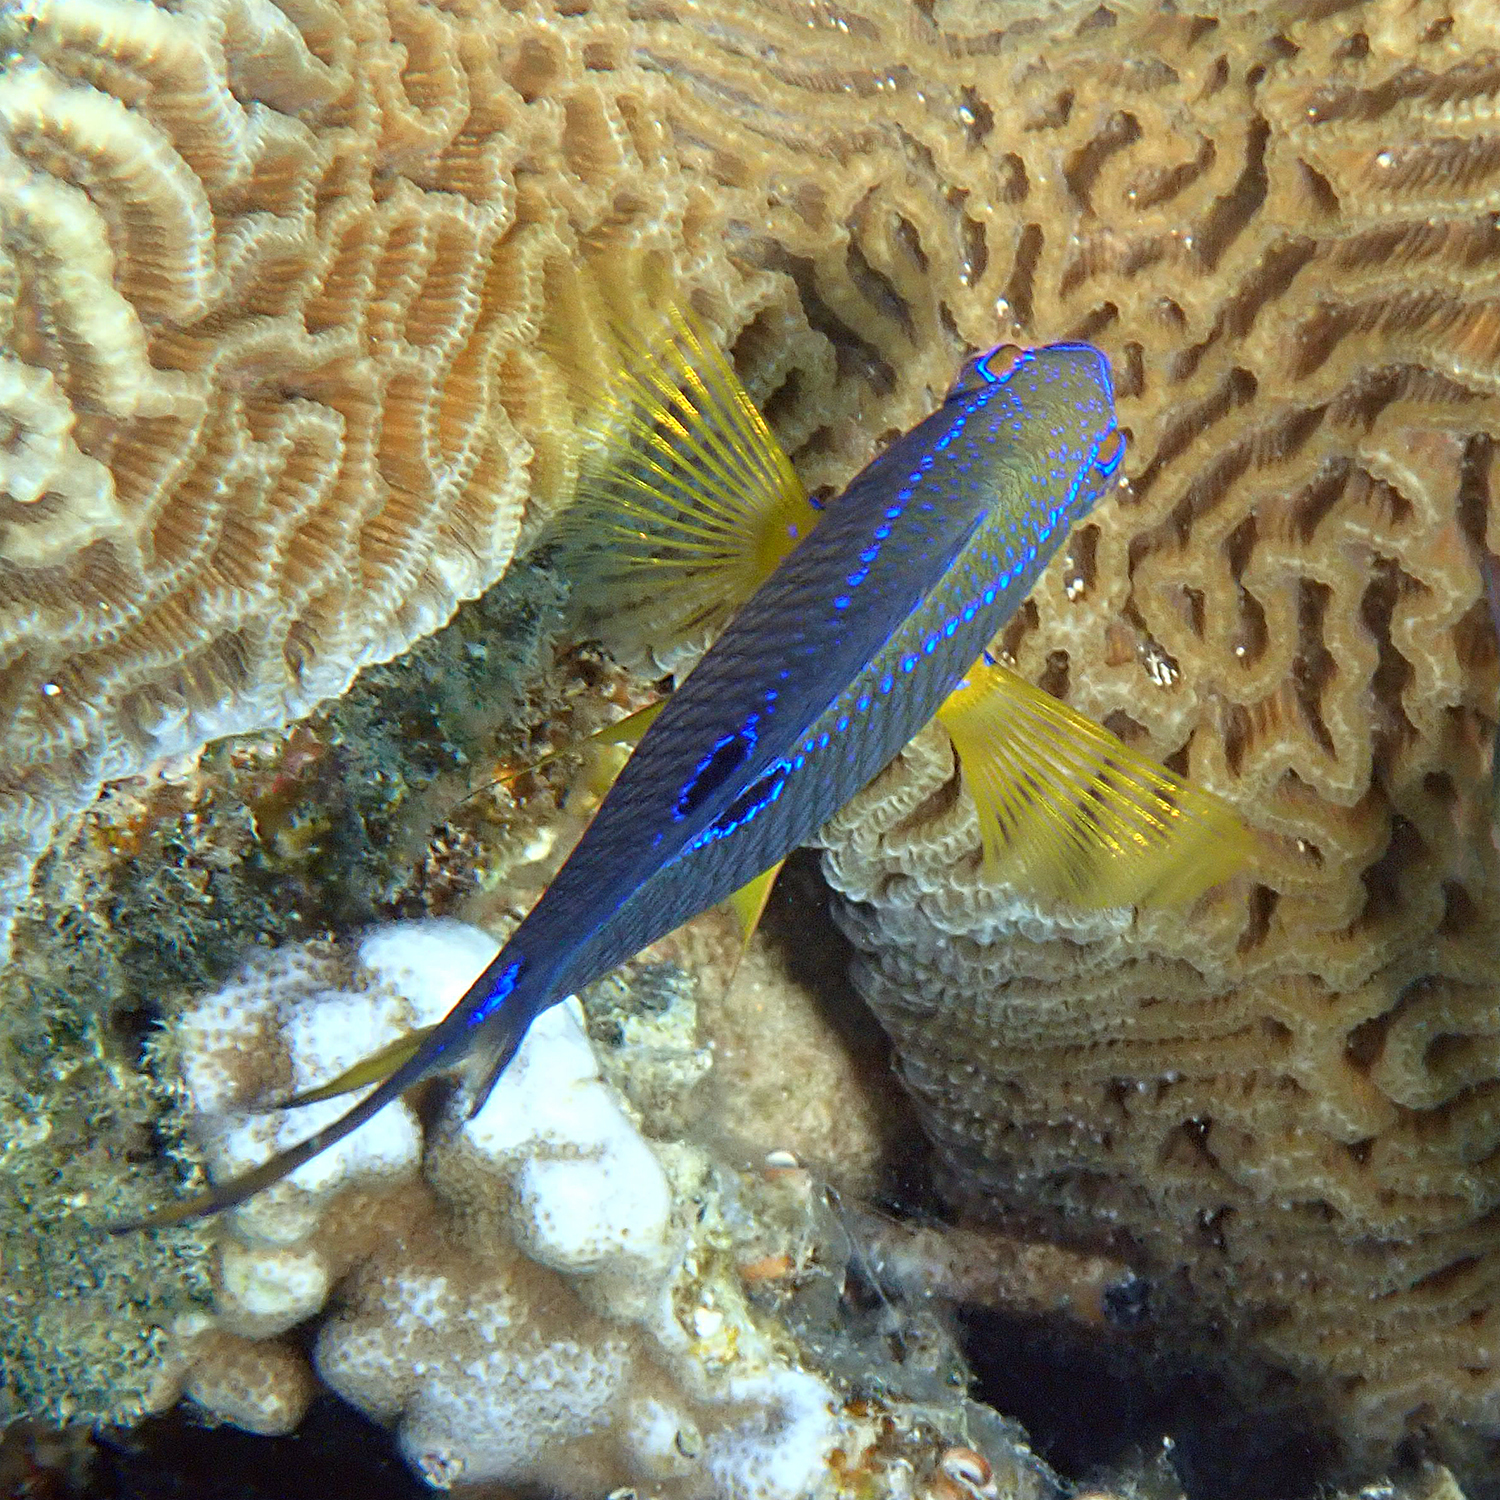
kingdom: Animalia
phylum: Chordata
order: Perciformes
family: Pomacentridae
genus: Neoglyphidodon
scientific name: Neoglyphidodon polyacanthus
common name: Multi-spined damsel
